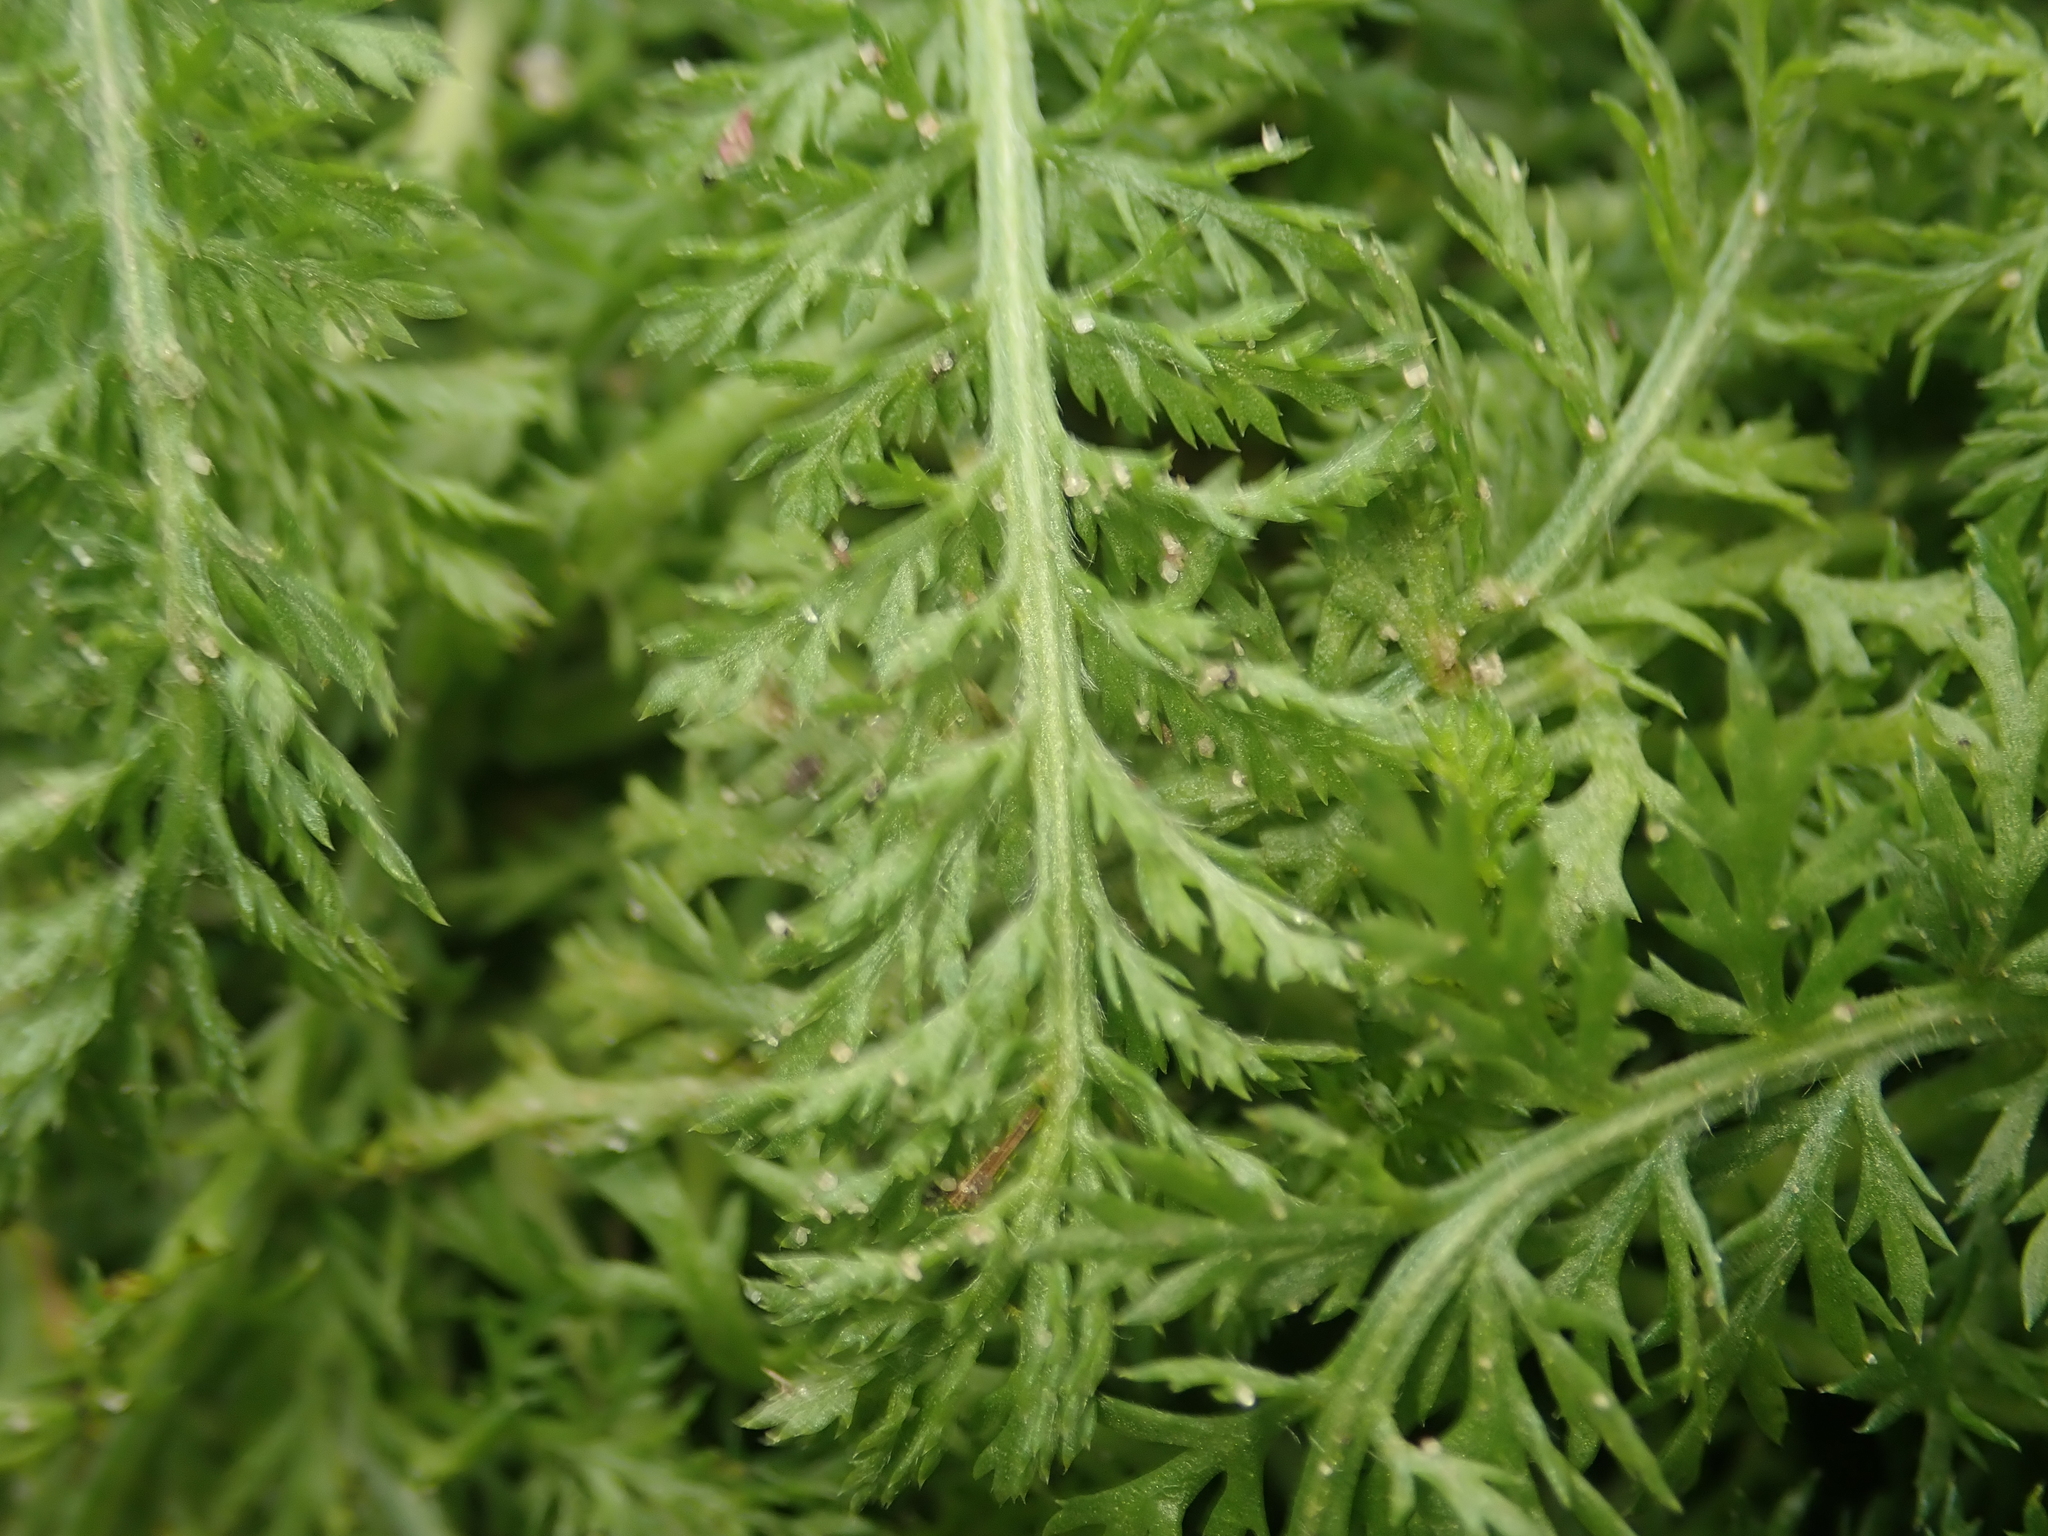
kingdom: Plantae
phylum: Tracheophyta
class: Magnoliopsida
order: Asterales
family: Asteraceae
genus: Achillea
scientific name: Achillea millefolium
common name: Yarrow
